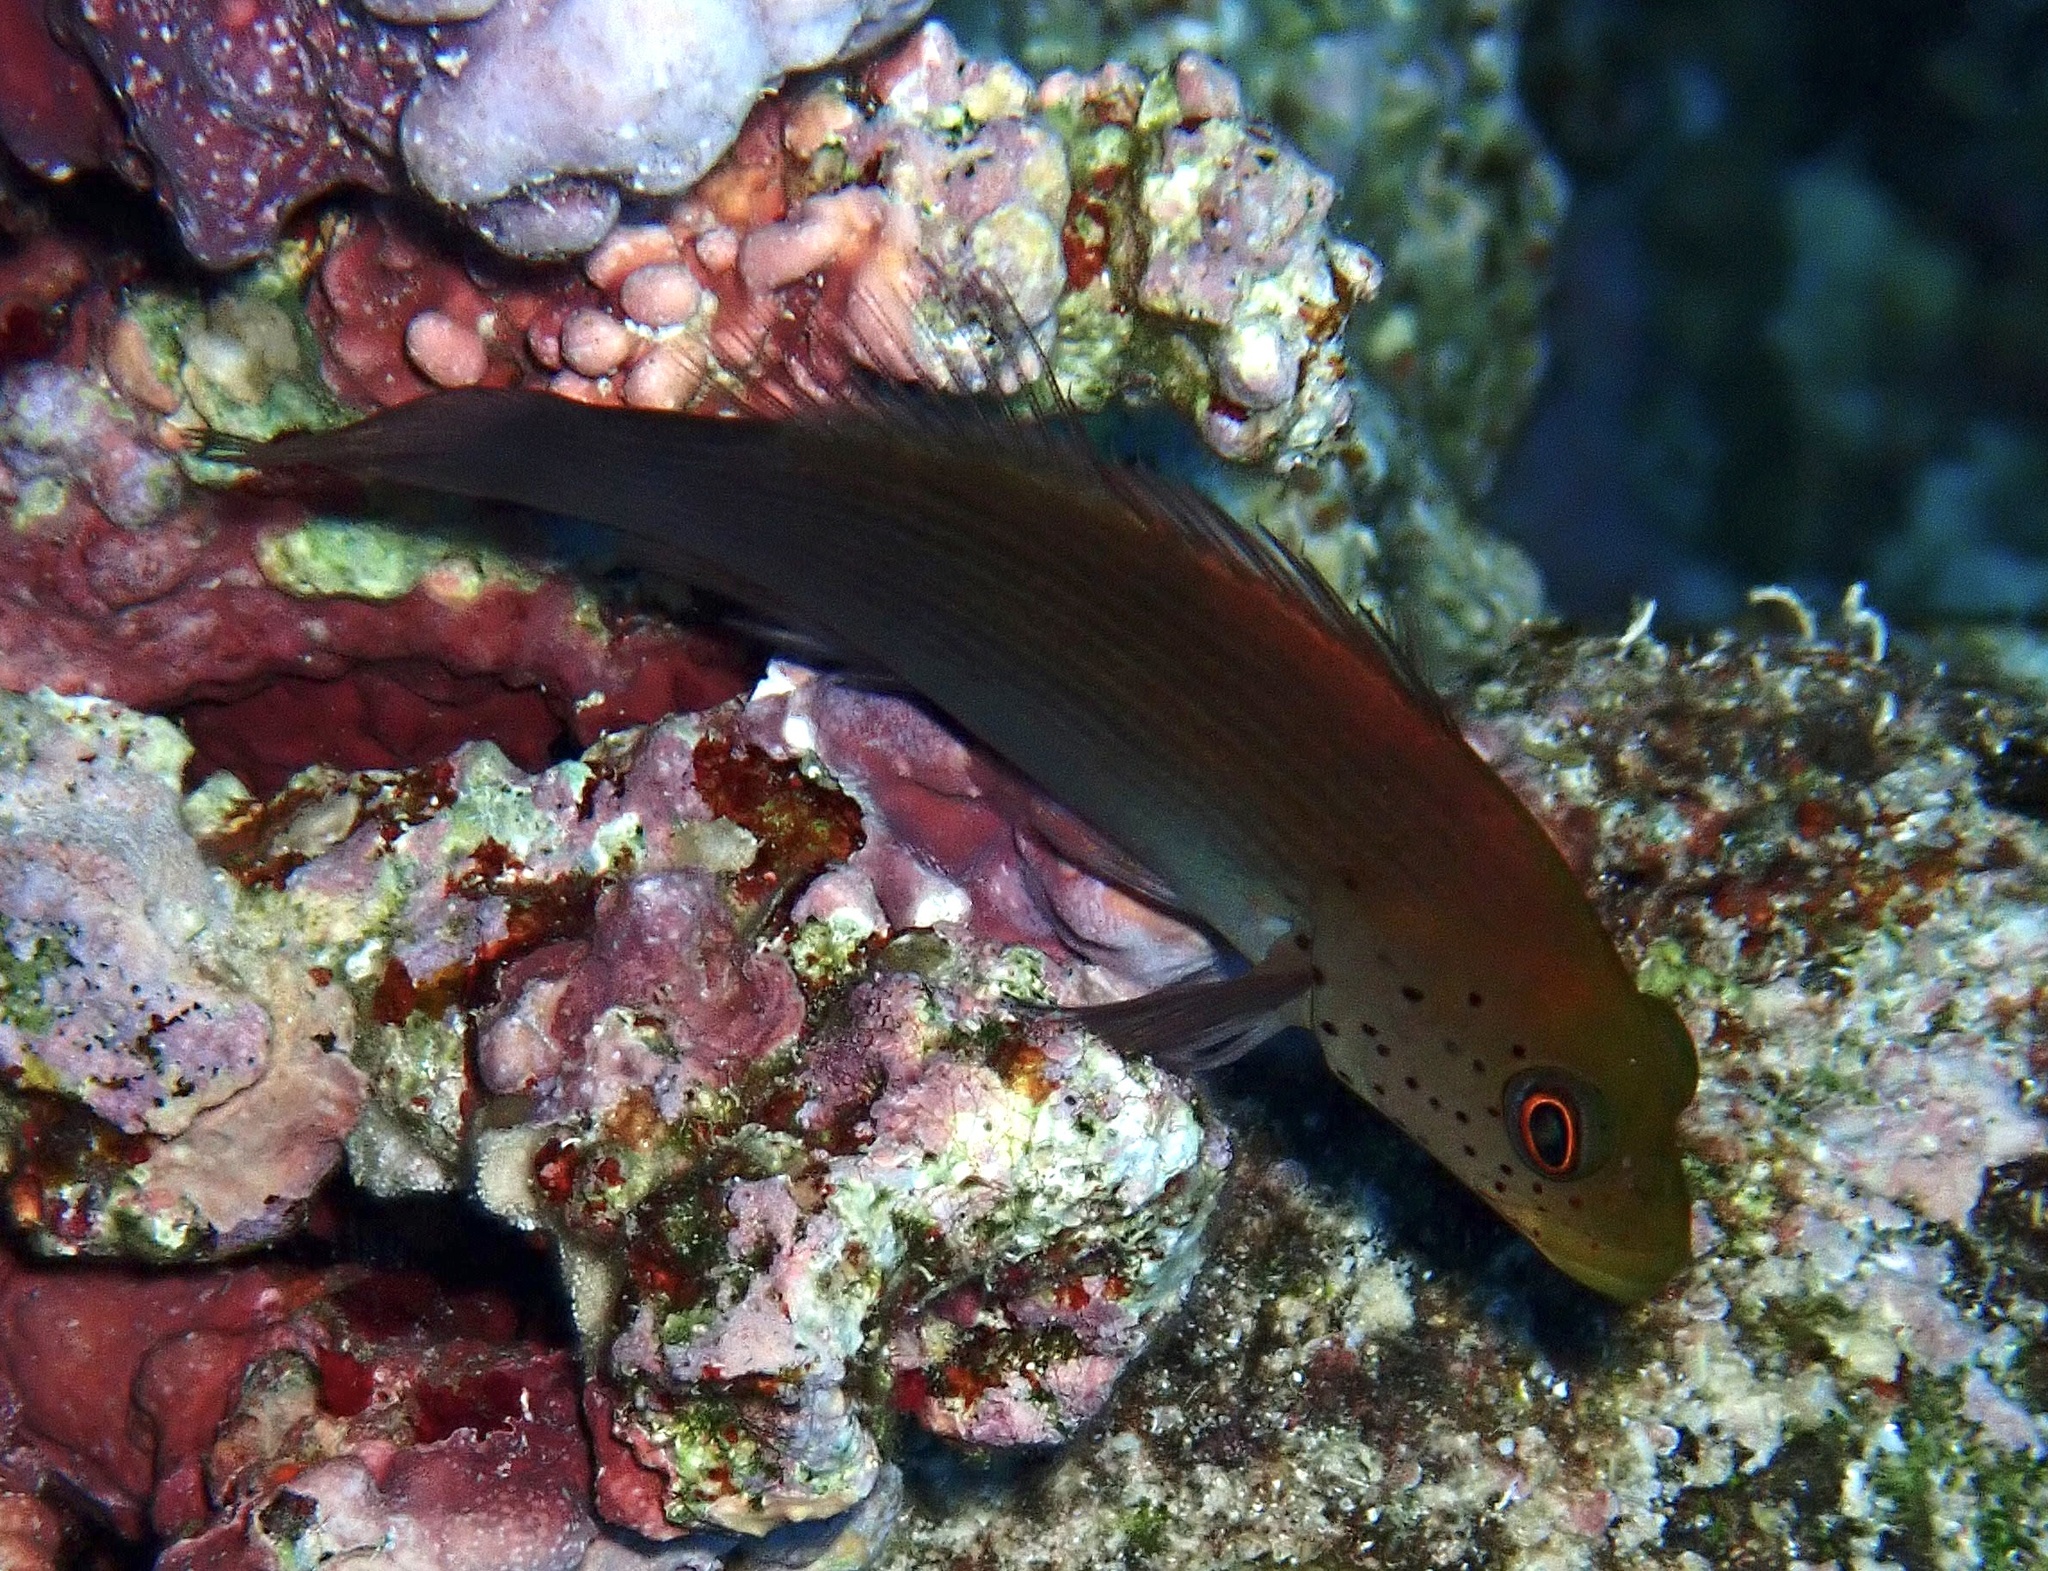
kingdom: Animalia
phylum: Chordata
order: Perciformes
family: Cirrhitidae
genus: Paracirrhites
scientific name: Paracirrhites forsteri
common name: Freckled hawkfish
